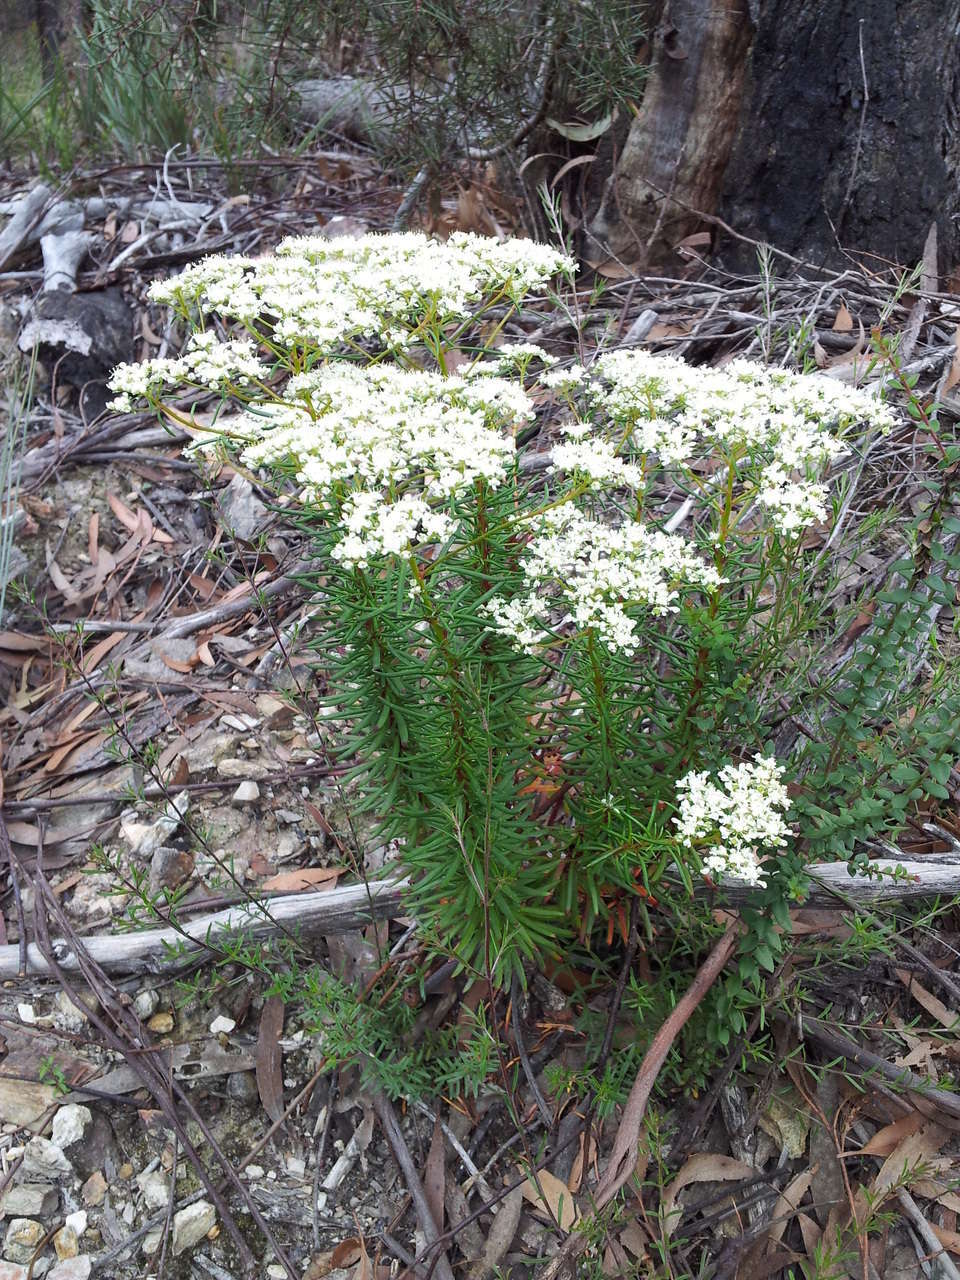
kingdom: Plantae
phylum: Tracheophyta
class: Magnoliopsida
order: Malpighiales
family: Phyllanthaceae
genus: Poranthera
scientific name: Poranthera corymbosa
